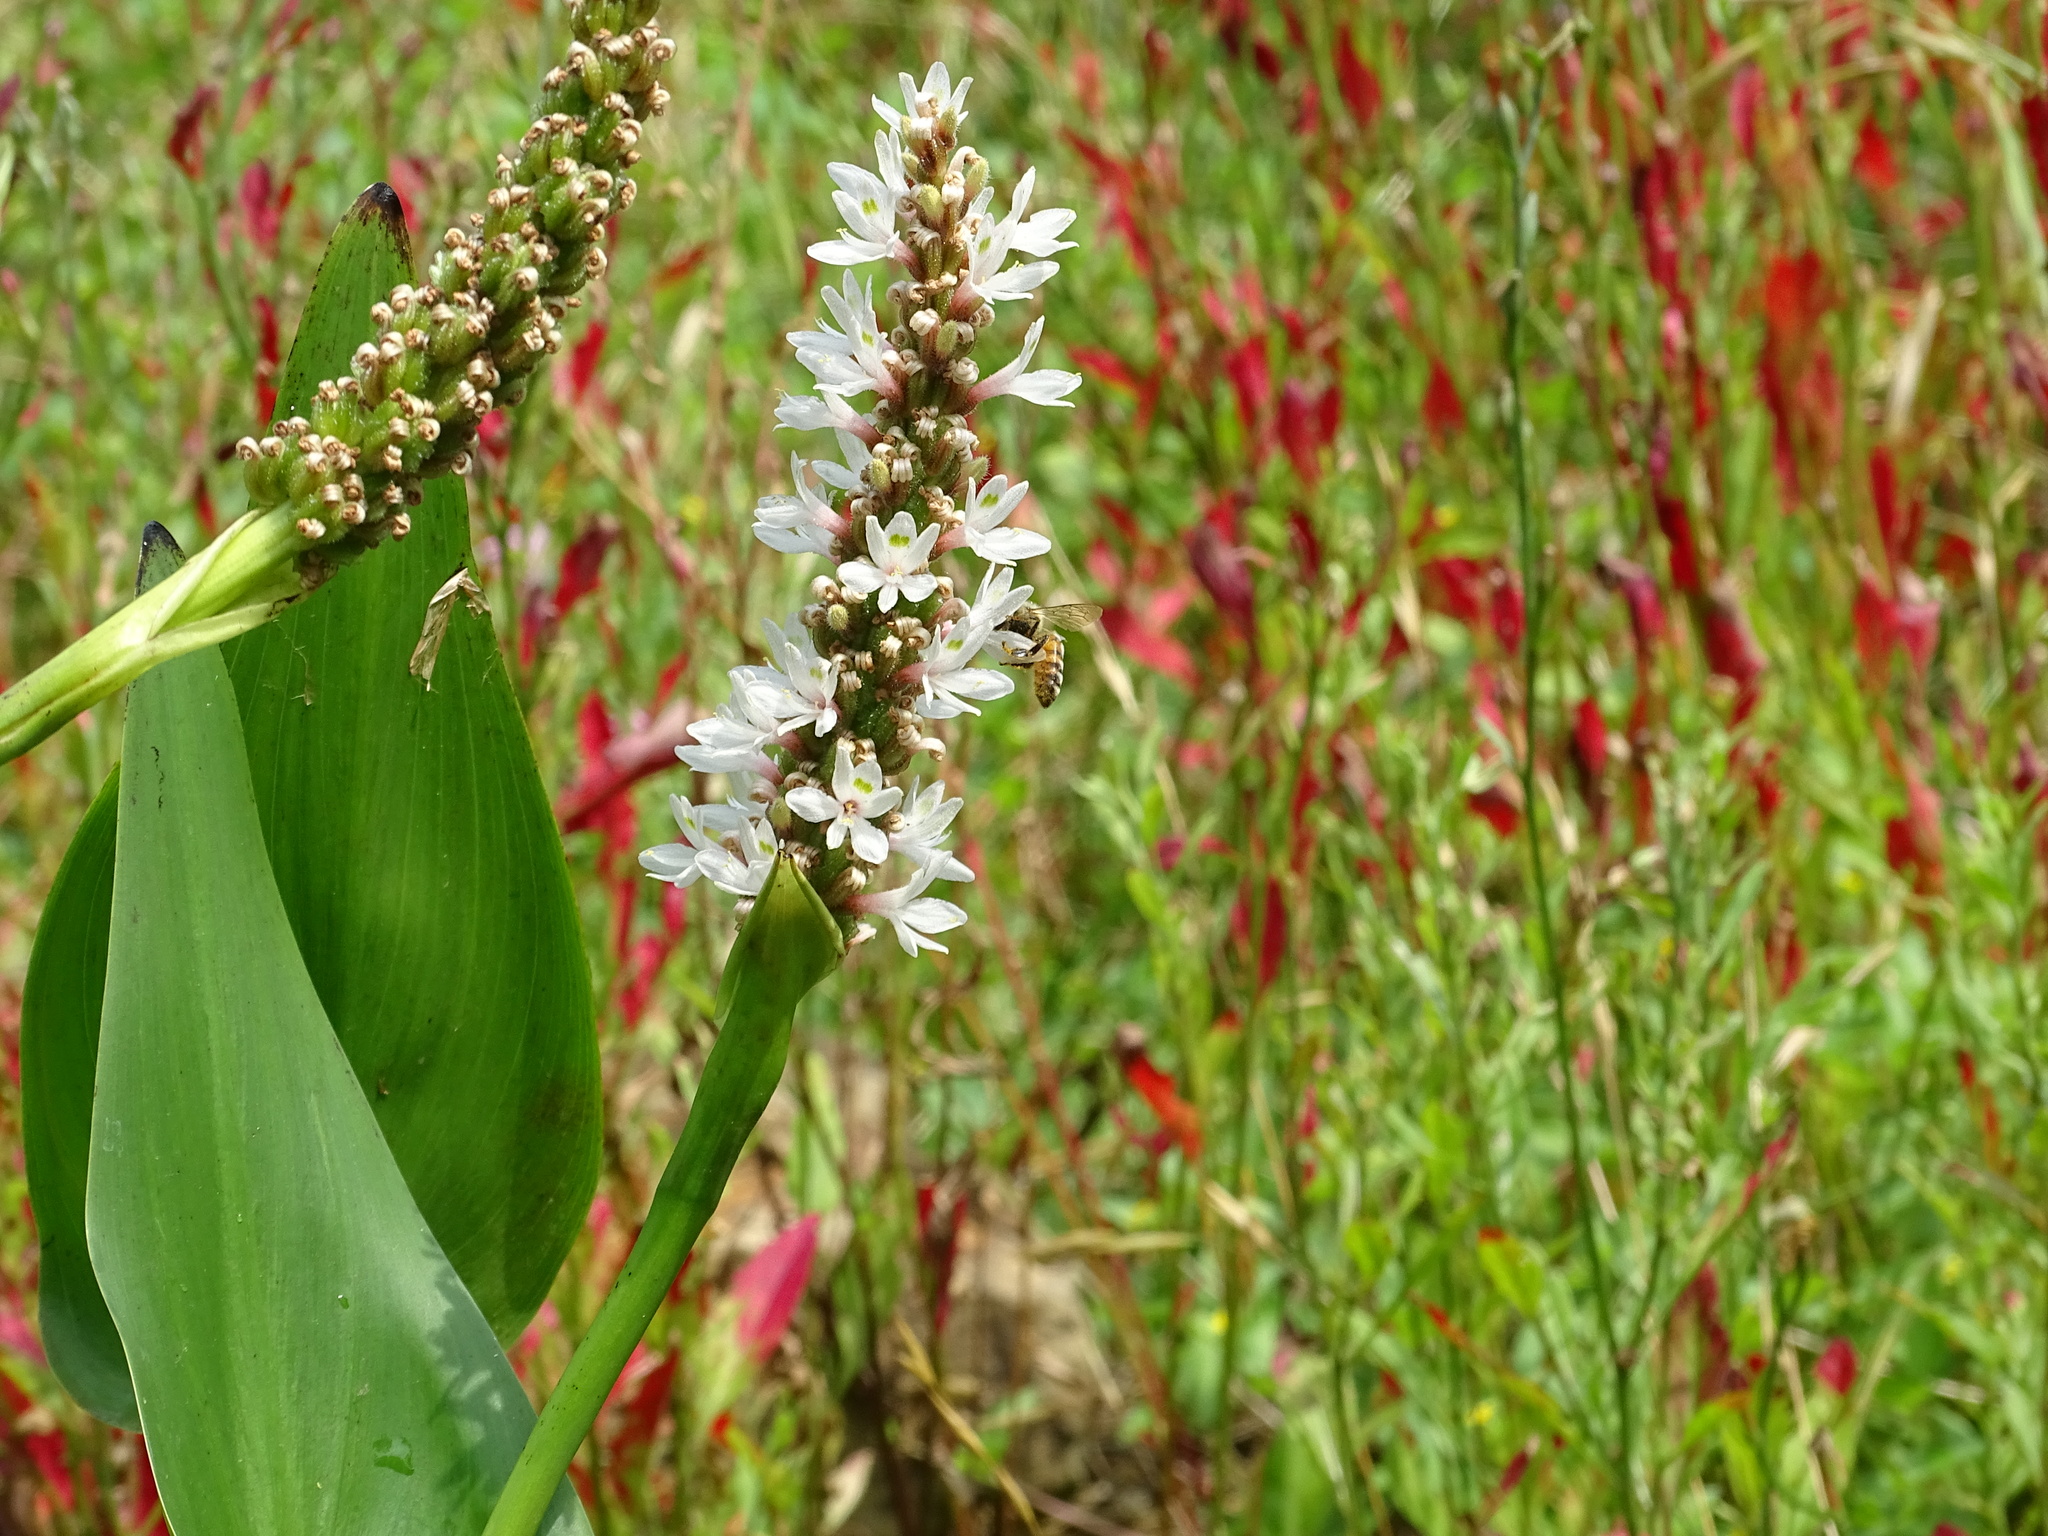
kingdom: Plantae
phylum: Tracheophyta
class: Liliopsida
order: Commelinales
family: Pontederiaceae
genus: Pontederia
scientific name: Pontederia cordata
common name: Pickerelweed
